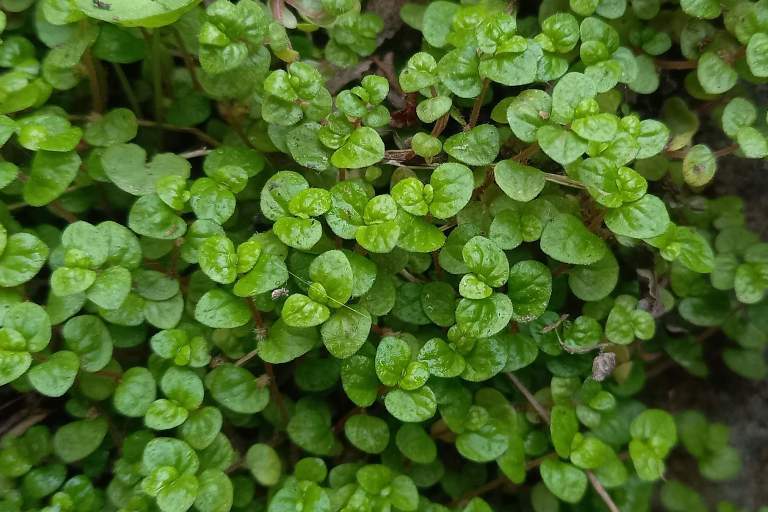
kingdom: Plantae
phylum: Tracheophyta
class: Magnoliopsida
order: Rosales
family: Urticaceae
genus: Soleirolia
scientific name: Soleirolia soleirolii
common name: Mind-your-own-business
